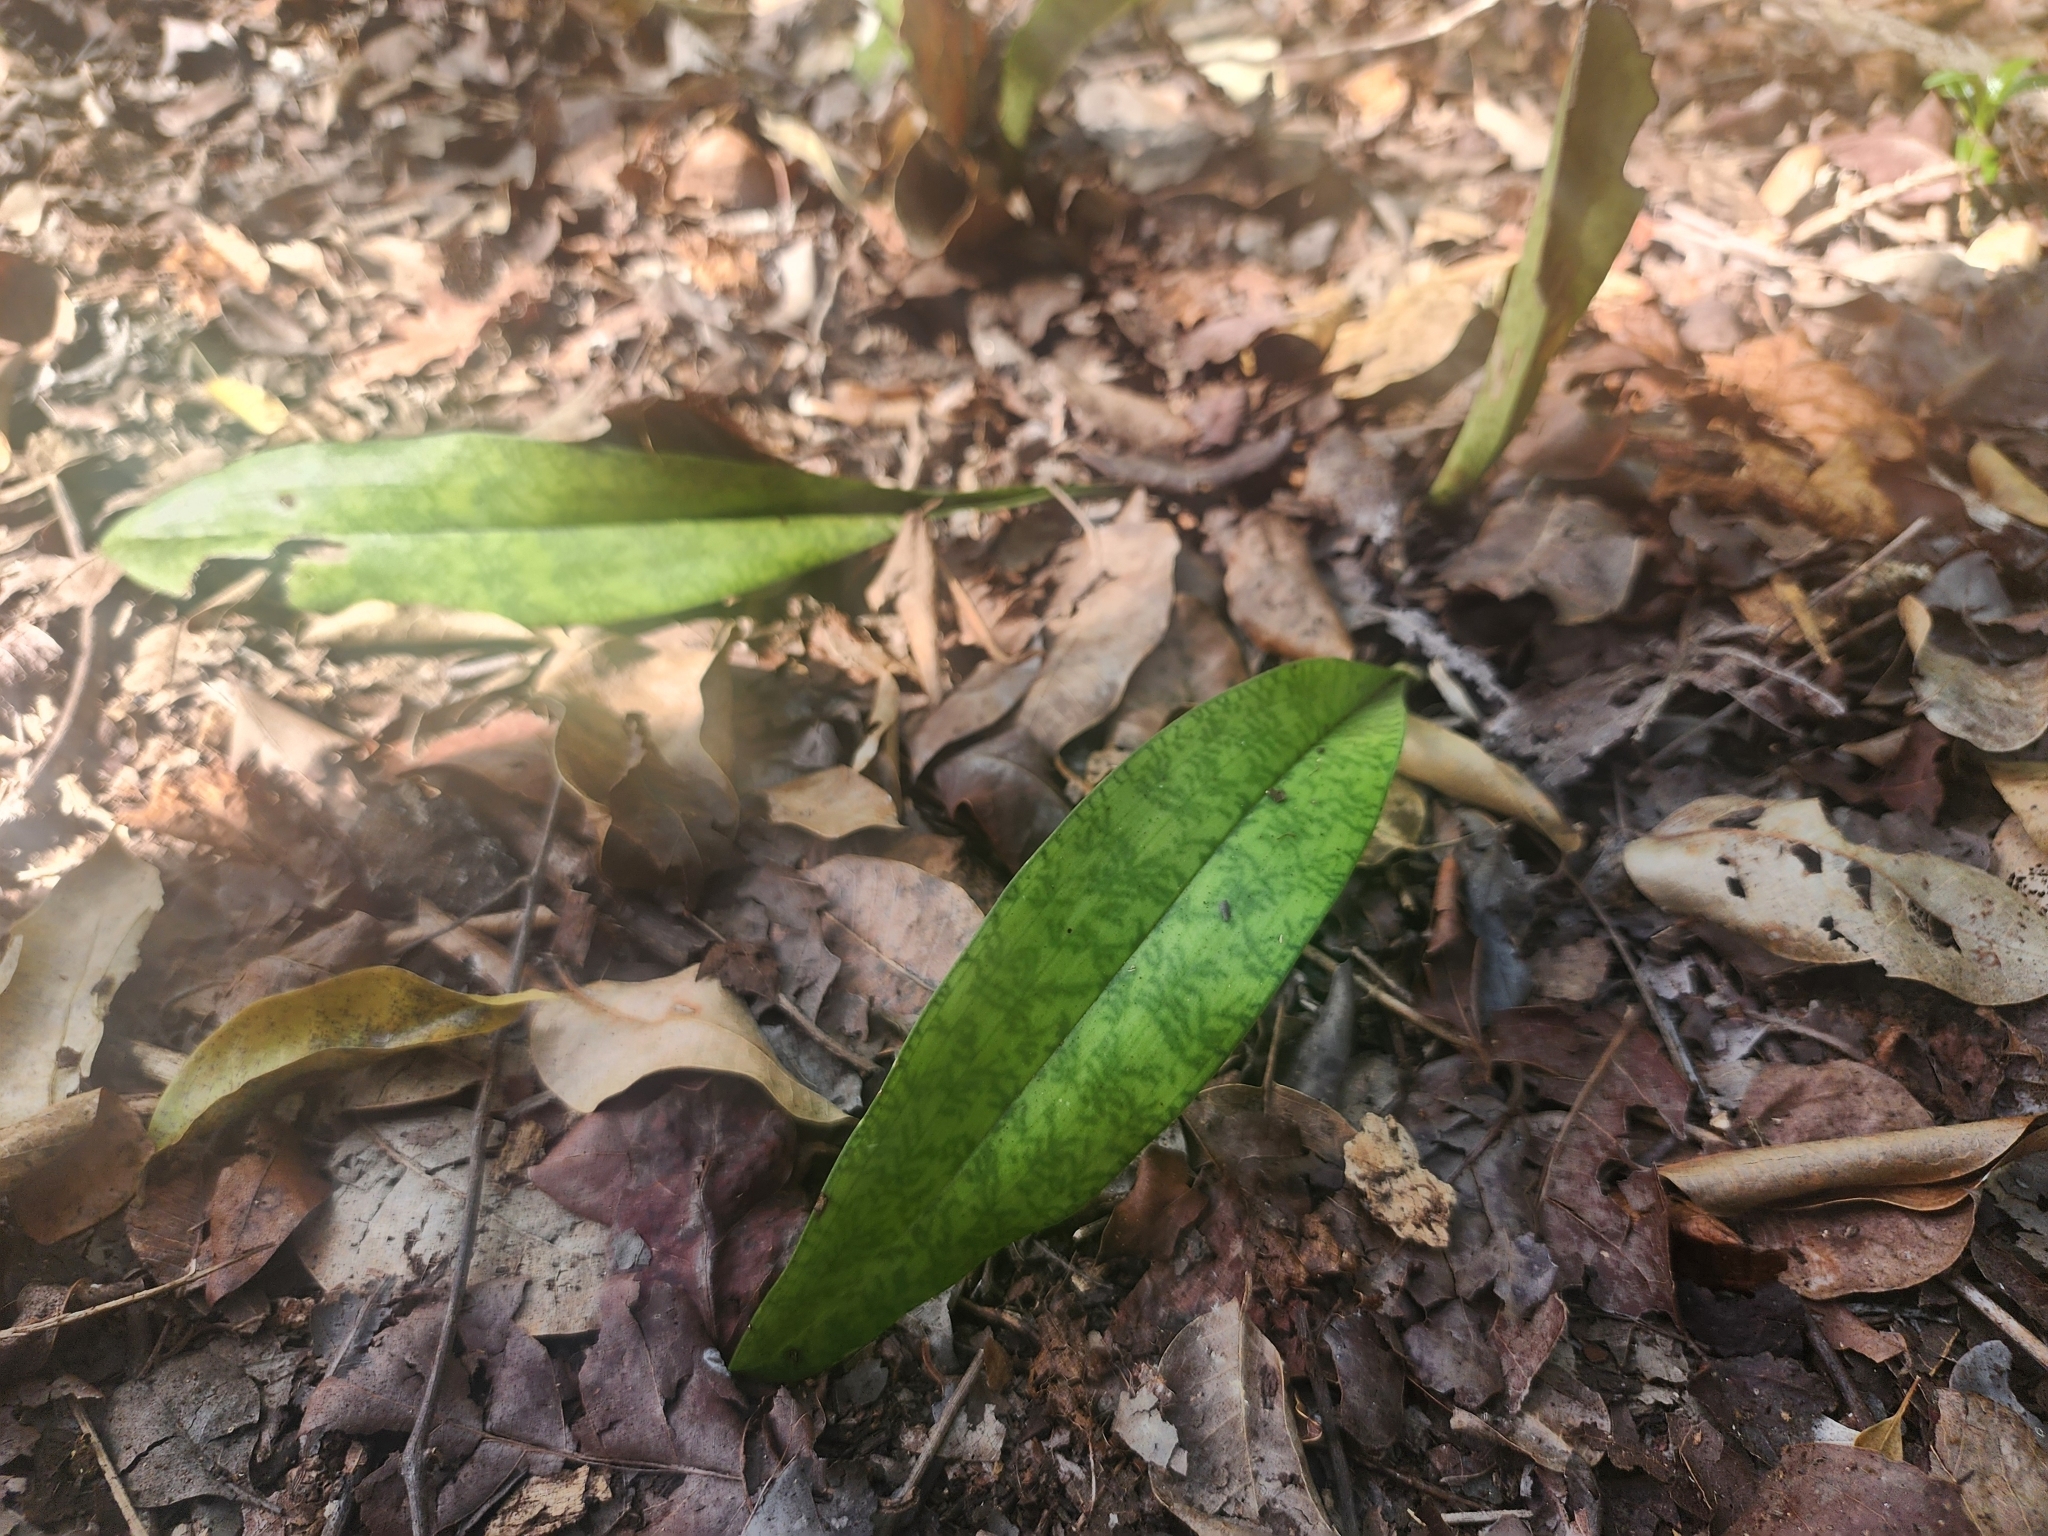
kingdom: Plantae
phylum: Tracheophyta
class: Liliopsida
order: Asparagales
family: Orchidaceae
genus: Eulophia
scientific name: Eulophia maculata
